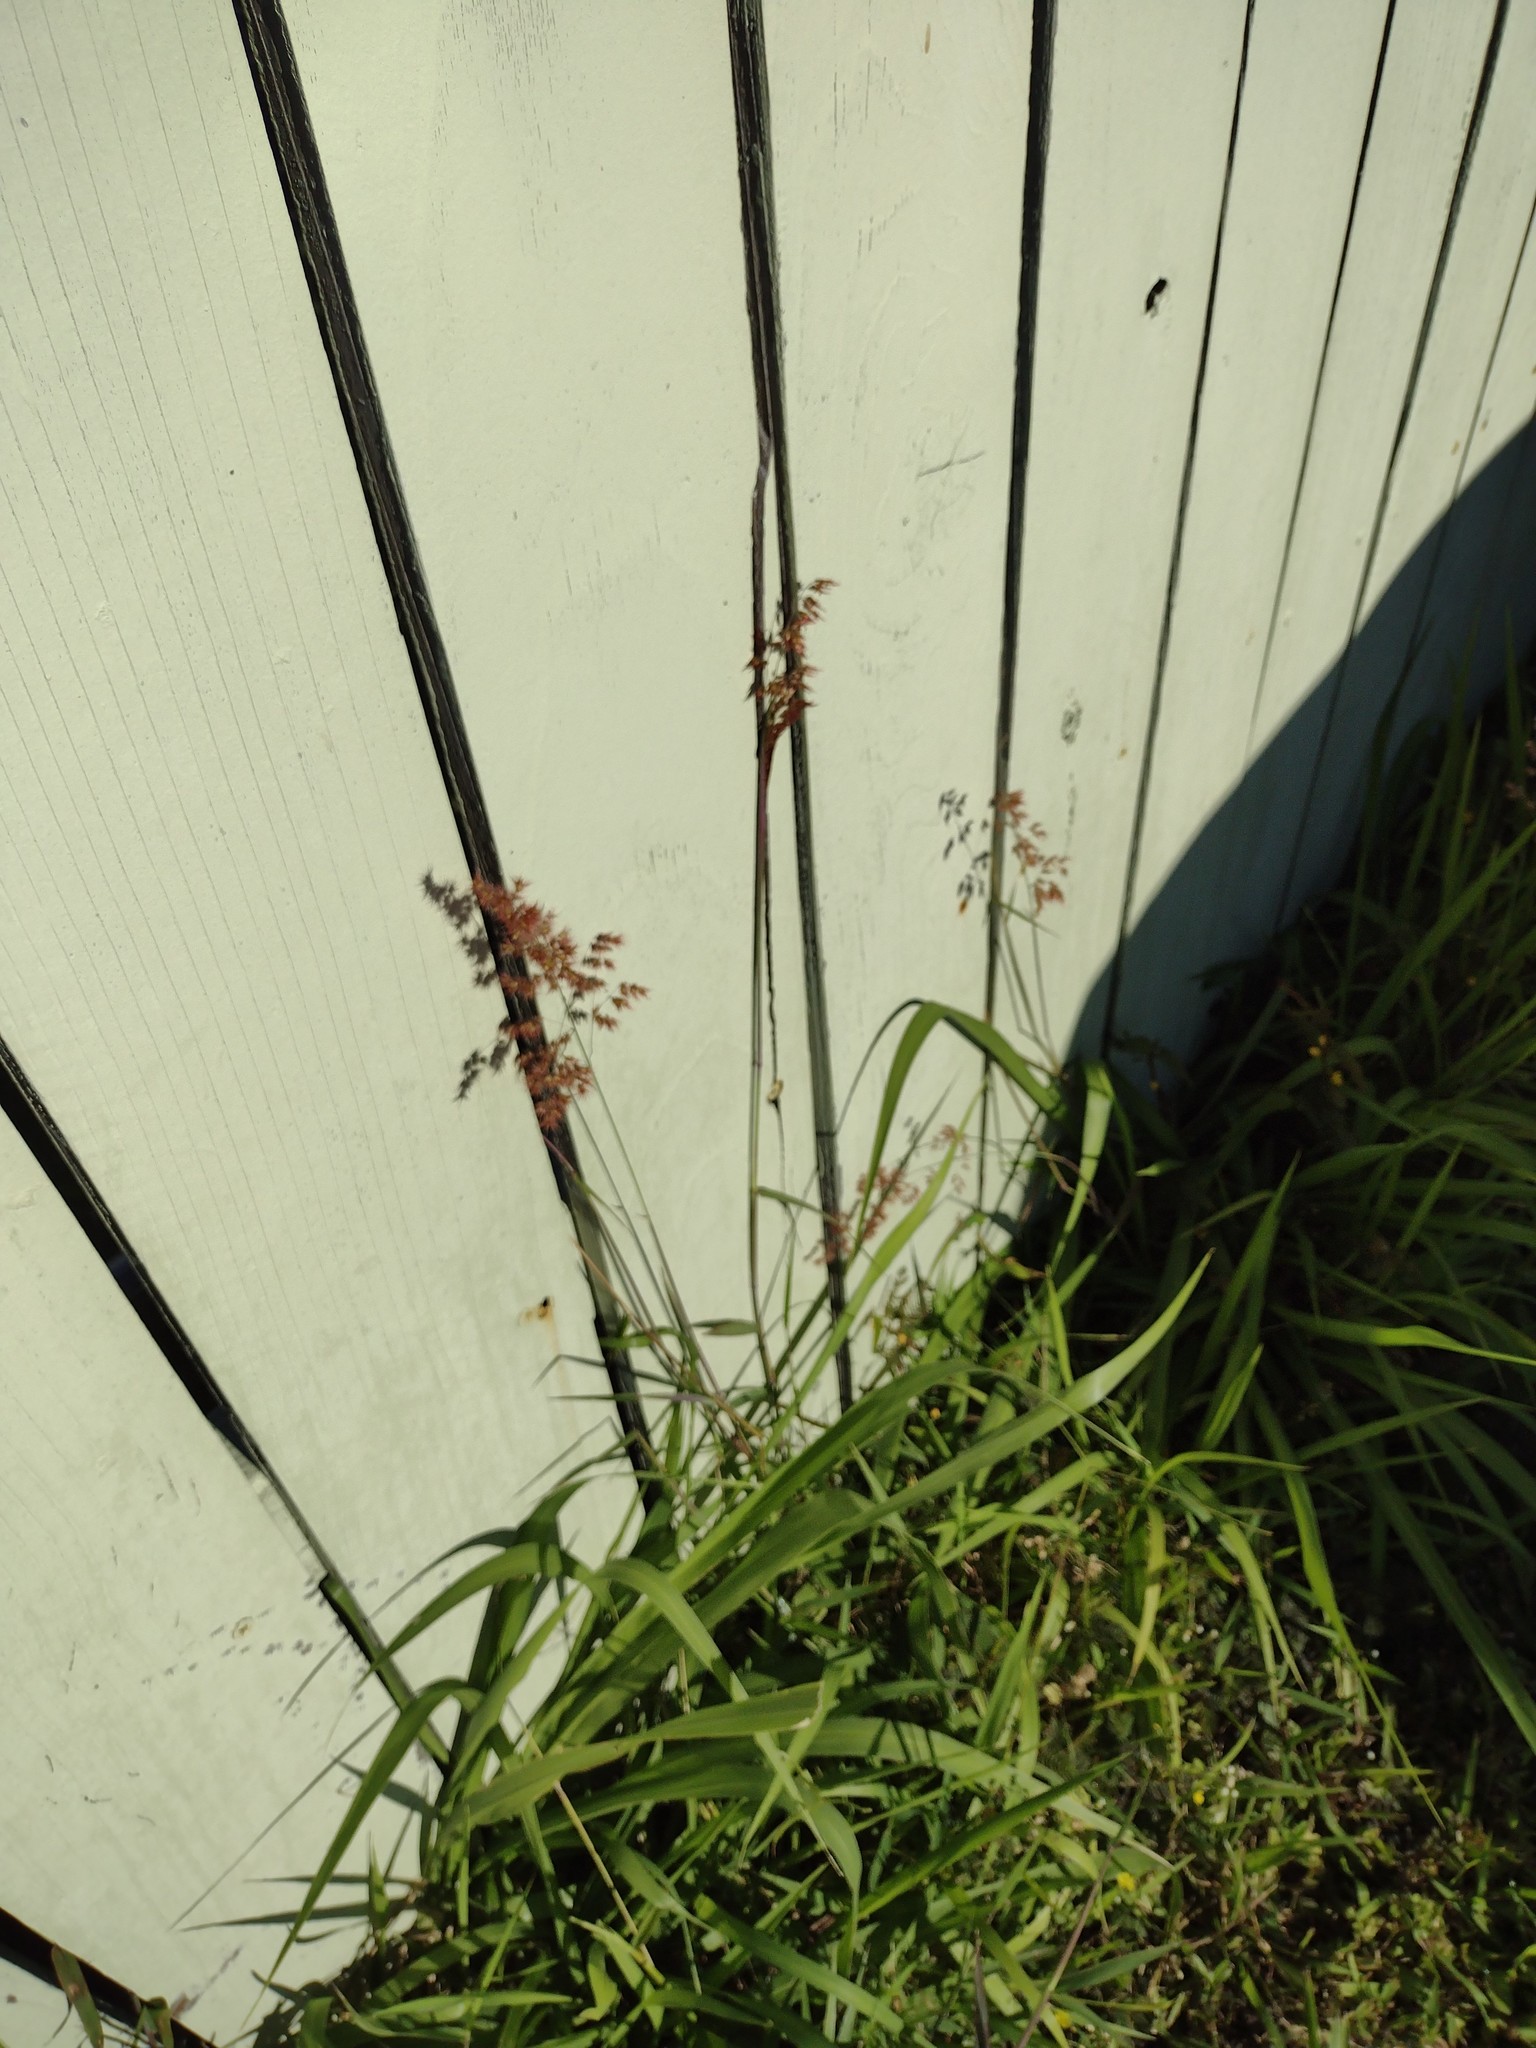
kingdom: Plantae
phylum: Tracheophyta
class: Liliopsida
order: Poales
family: Poaceae
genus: Melinis
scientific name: Melinis repens
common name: Rose natal grass
